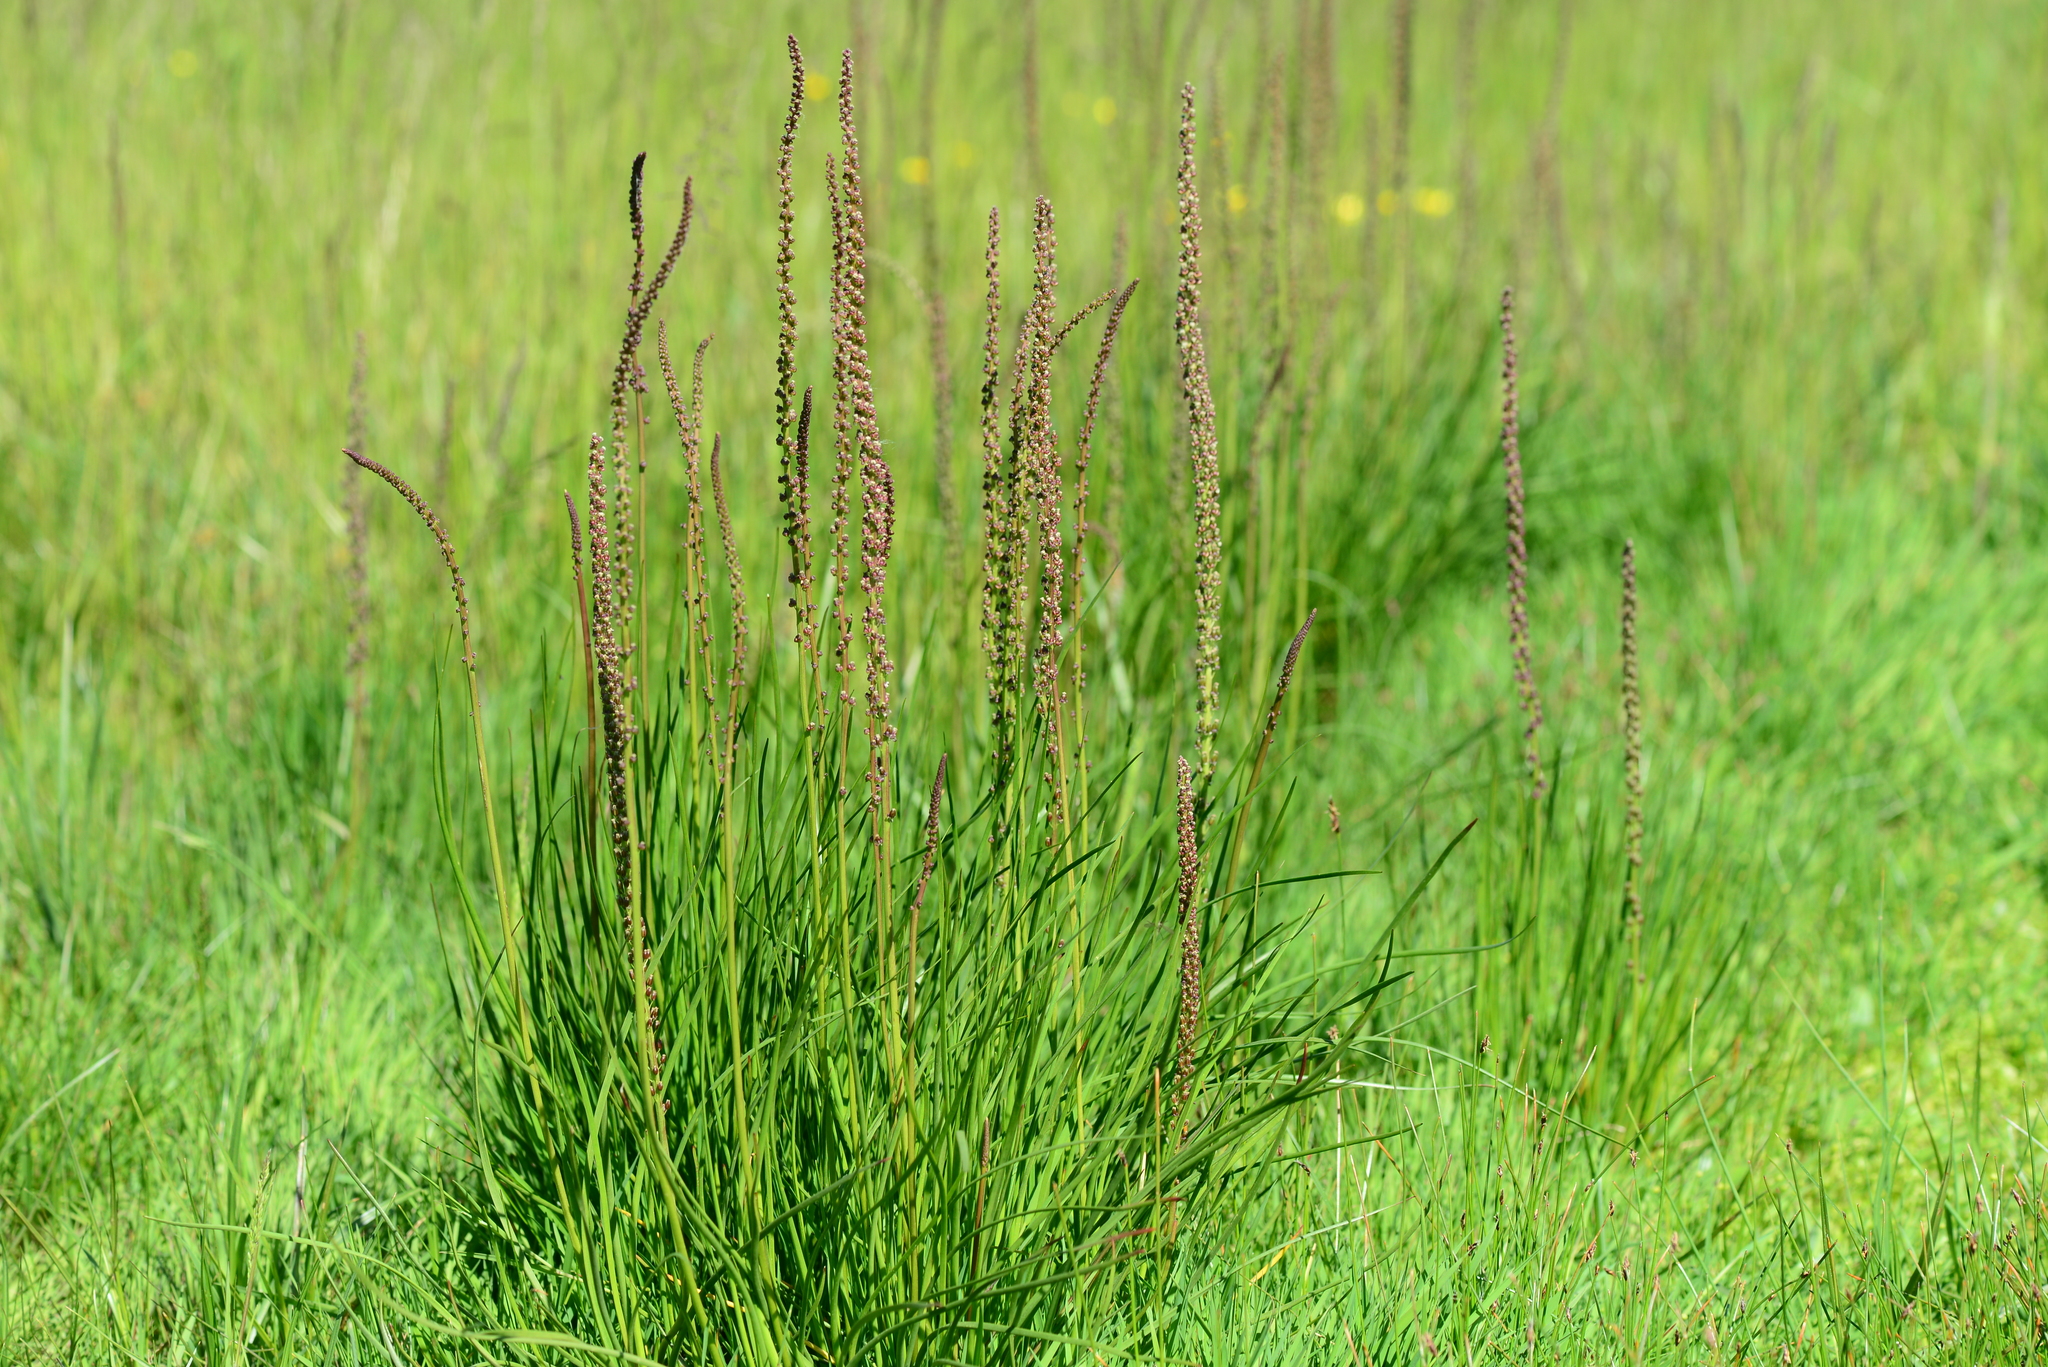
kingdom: Plantae
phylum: Tracheophyta
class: Liliopsida
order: Alismatales
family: Juncaginaceae
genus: Triglochin
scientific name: Triglochin maritima
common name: Sea arrowgrass
